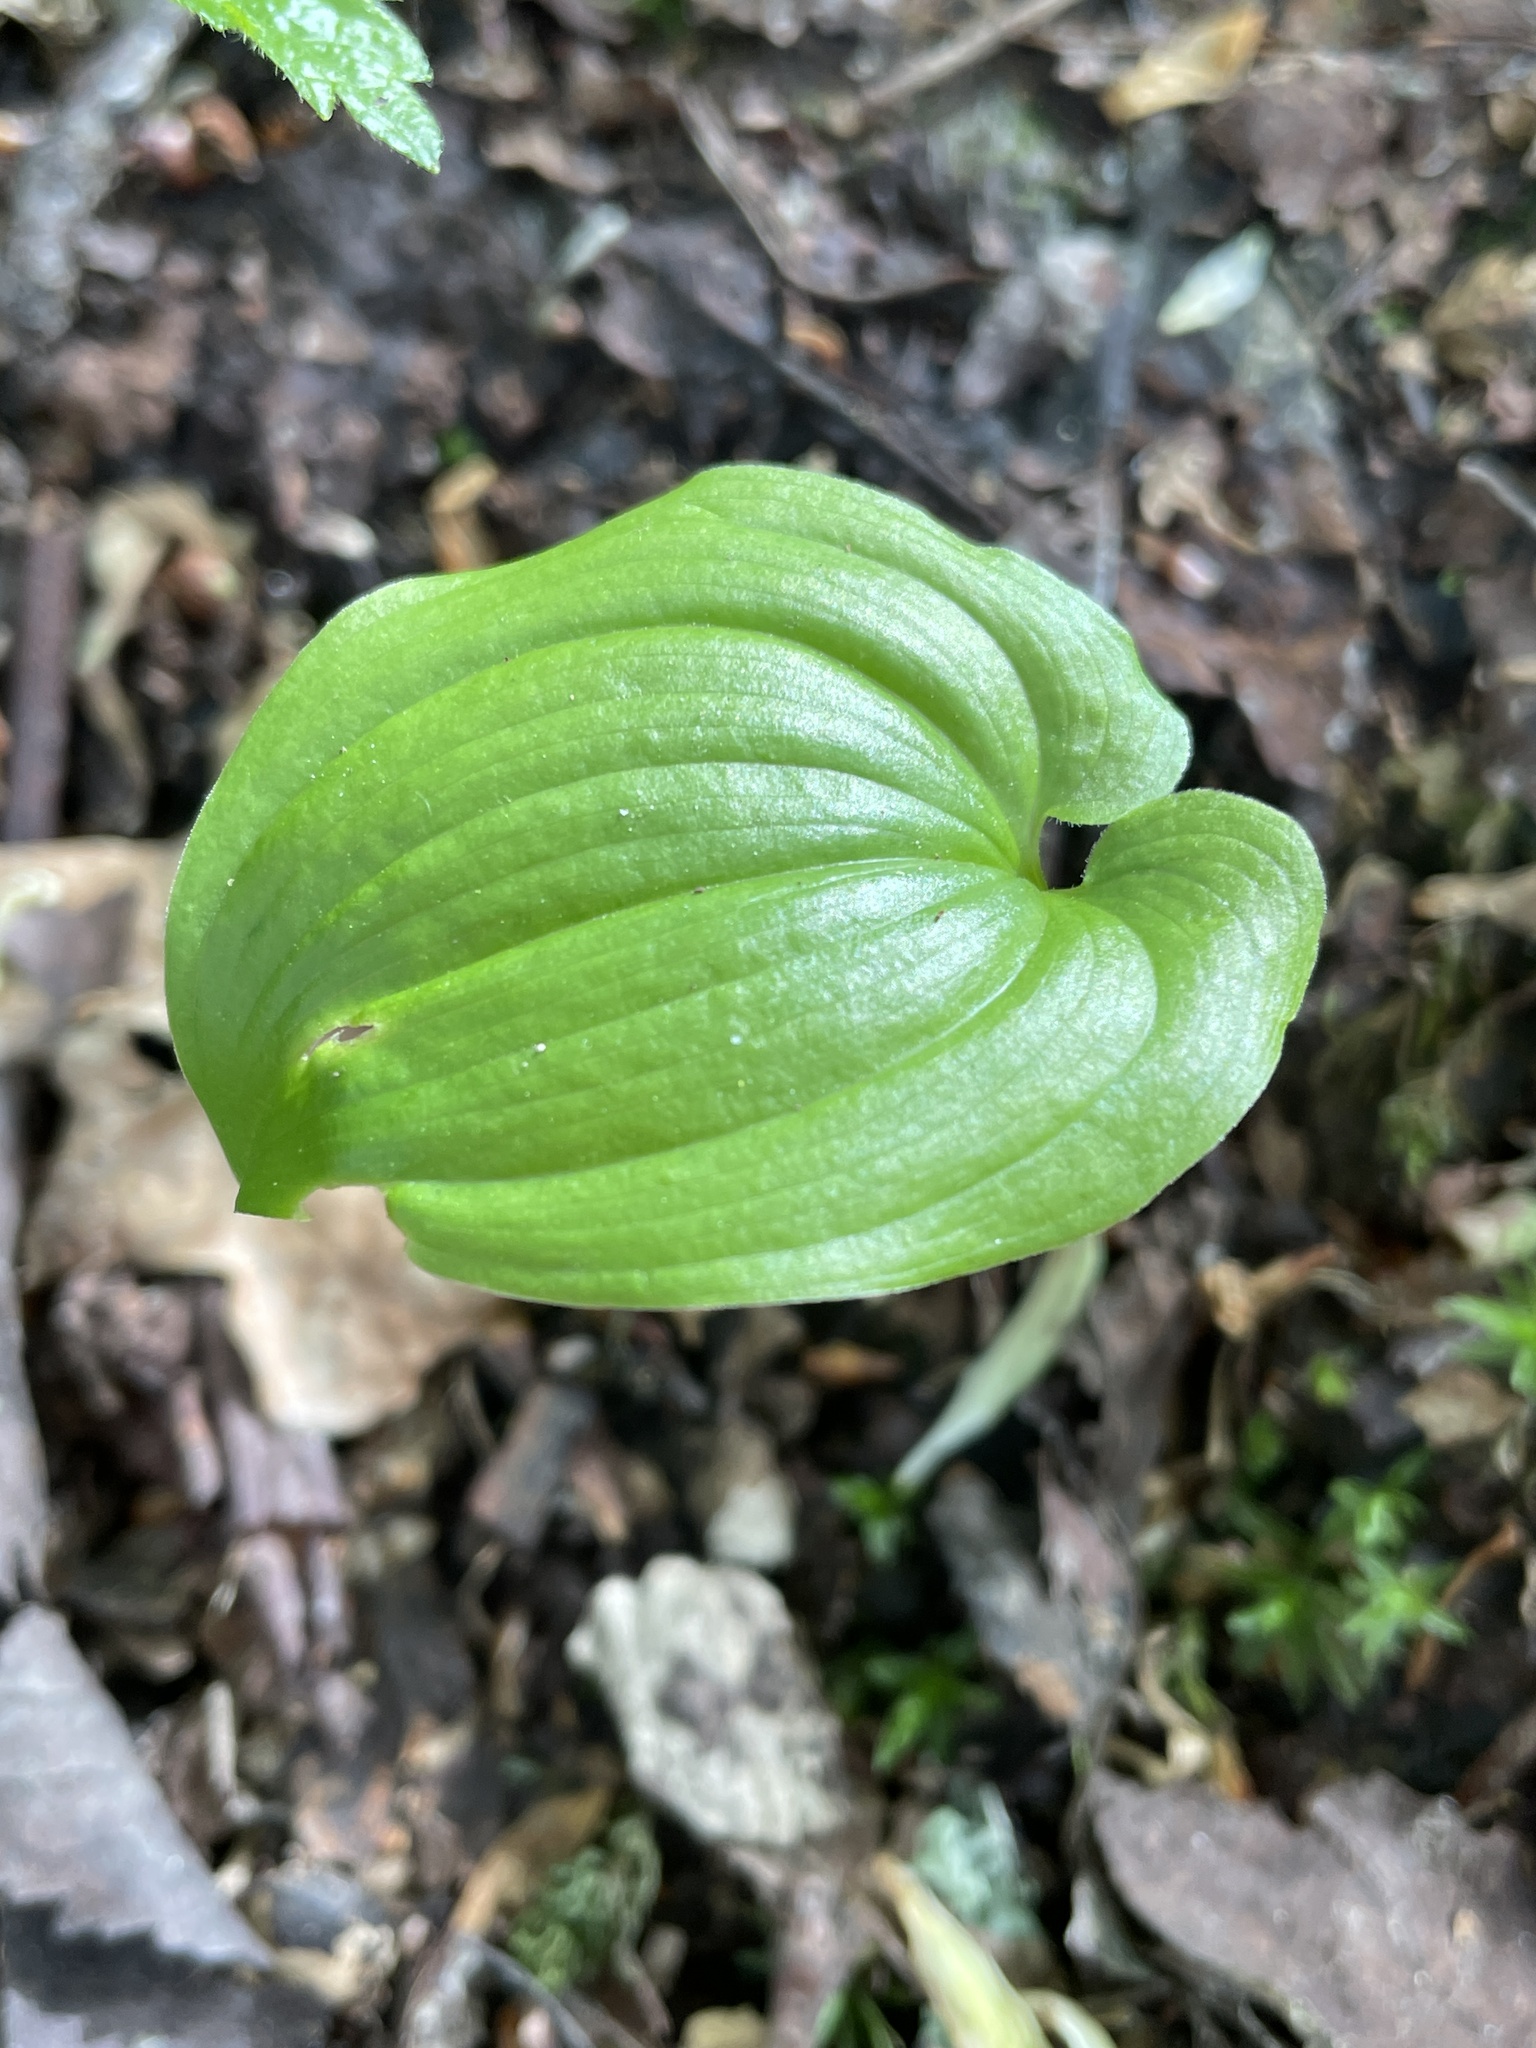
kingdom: Plantae
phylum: Tracheophyta
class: Liliopsida
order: Asparagales
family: Asparagaceae
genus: Maianthemum
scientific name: Maianthemum bifolium
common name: May lily
